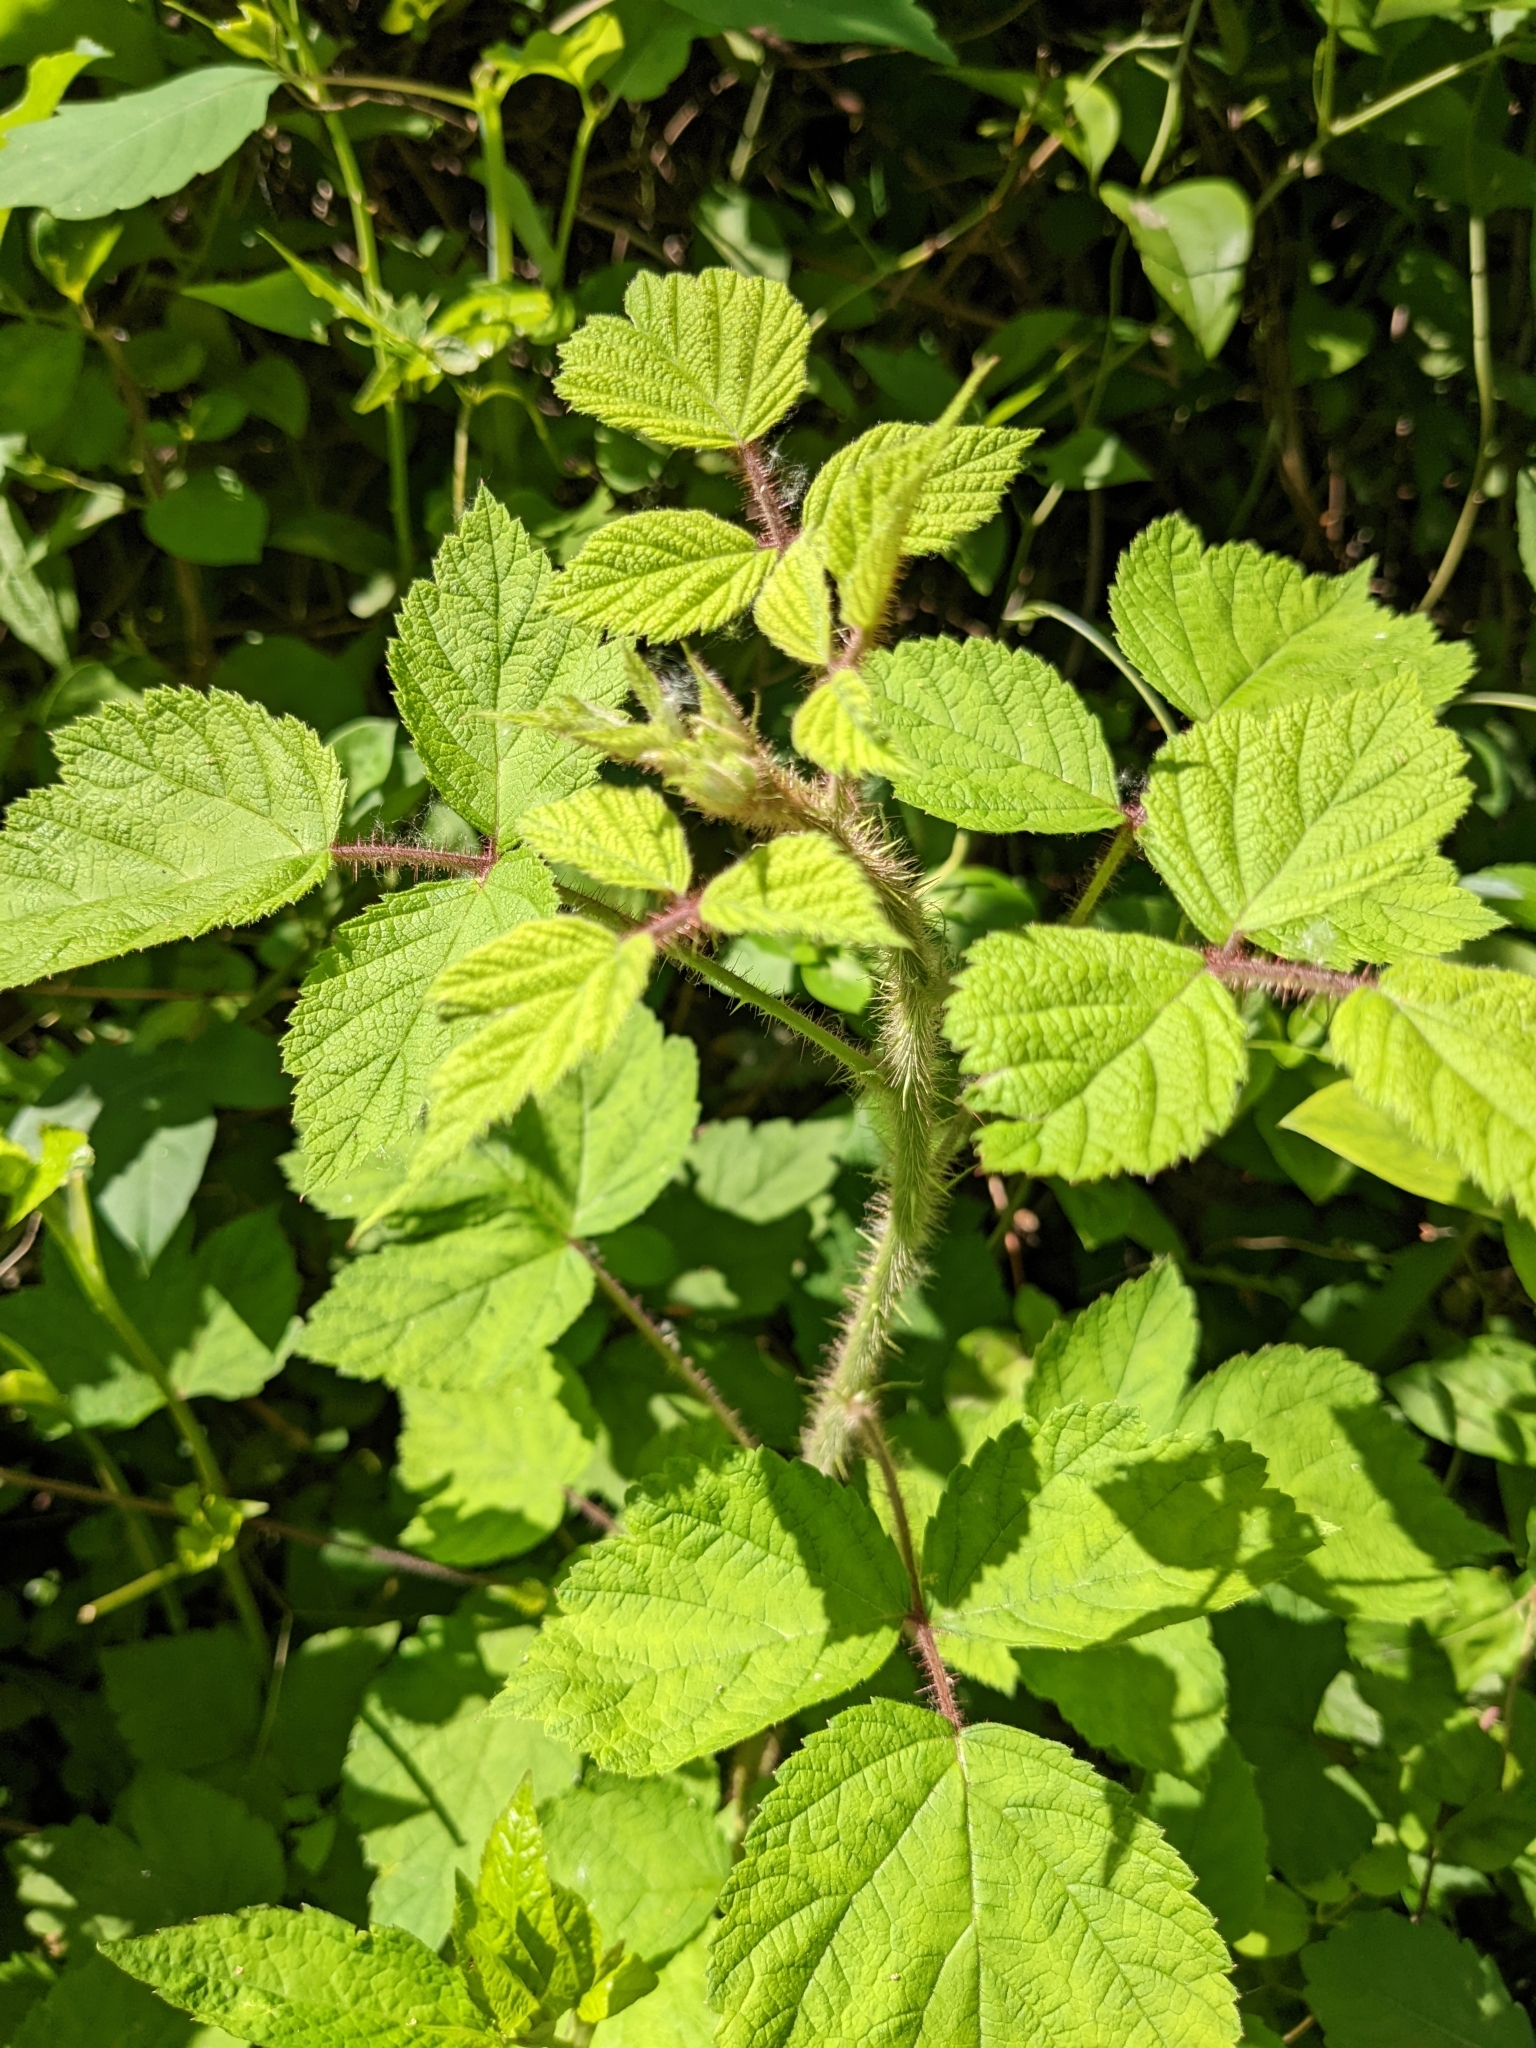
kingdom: Plantae
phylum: Tracheophyta
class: Magnoliopsida
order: Rosales
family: Rosaceae
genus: Rubus
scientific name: Rubus phoenicolasius
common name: Japanese wineberry
